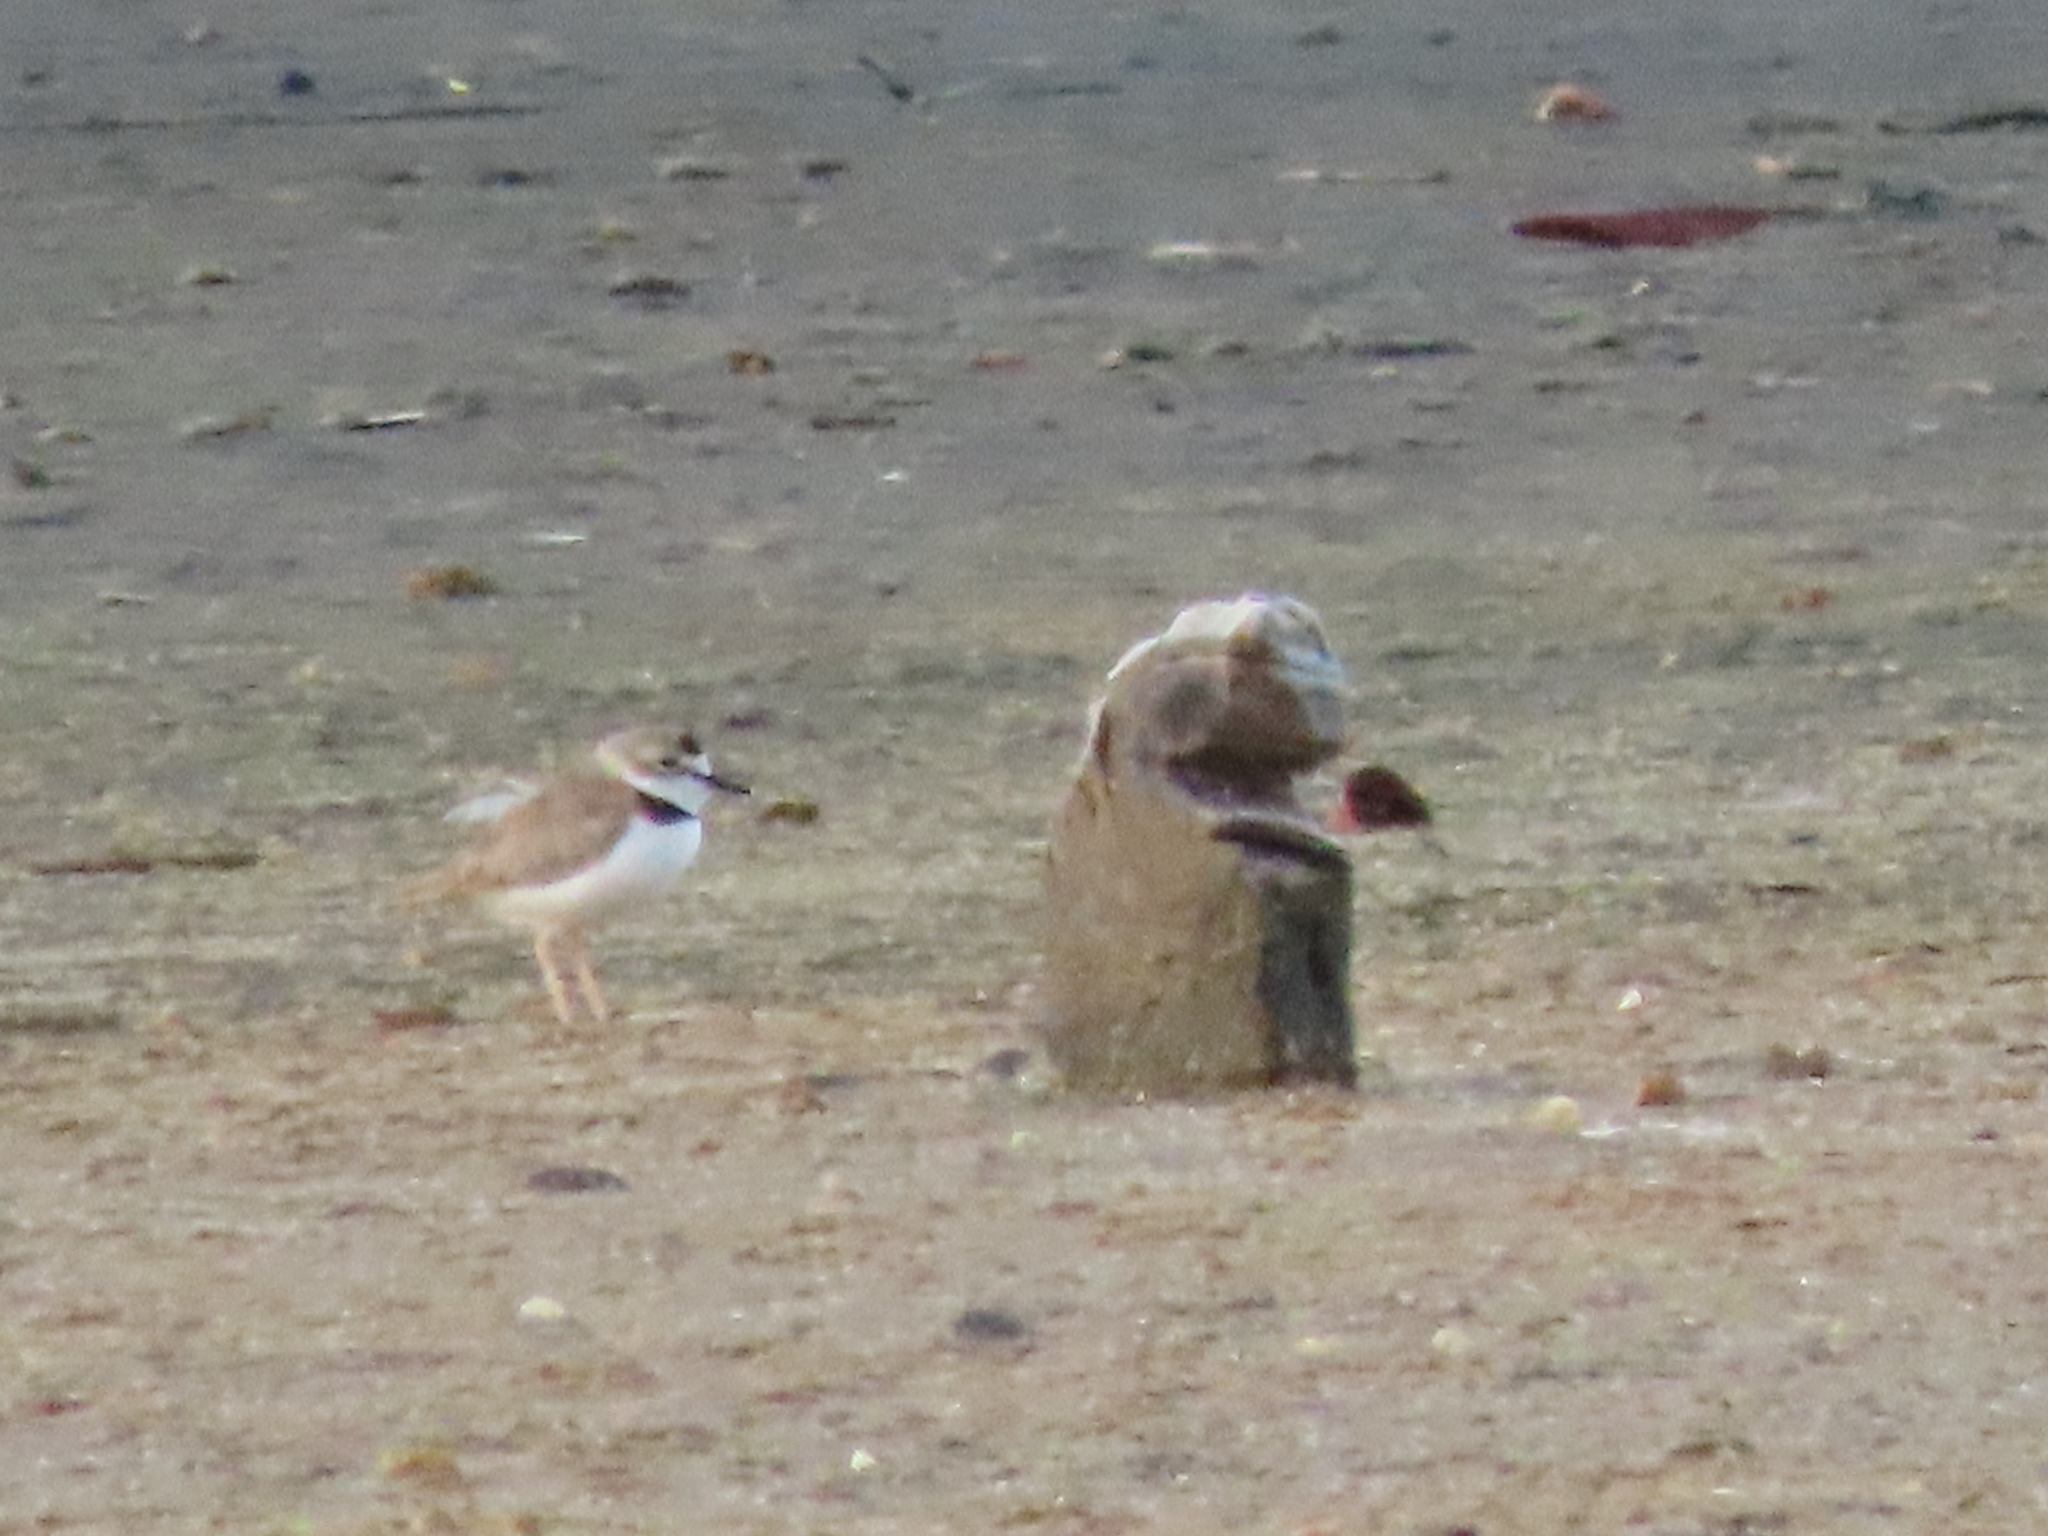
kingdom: Animalia
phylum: Chordata
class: Aves
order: Charadriiformes
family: Charadriidae
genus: Anarhynchus
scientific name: Anarhynchus
